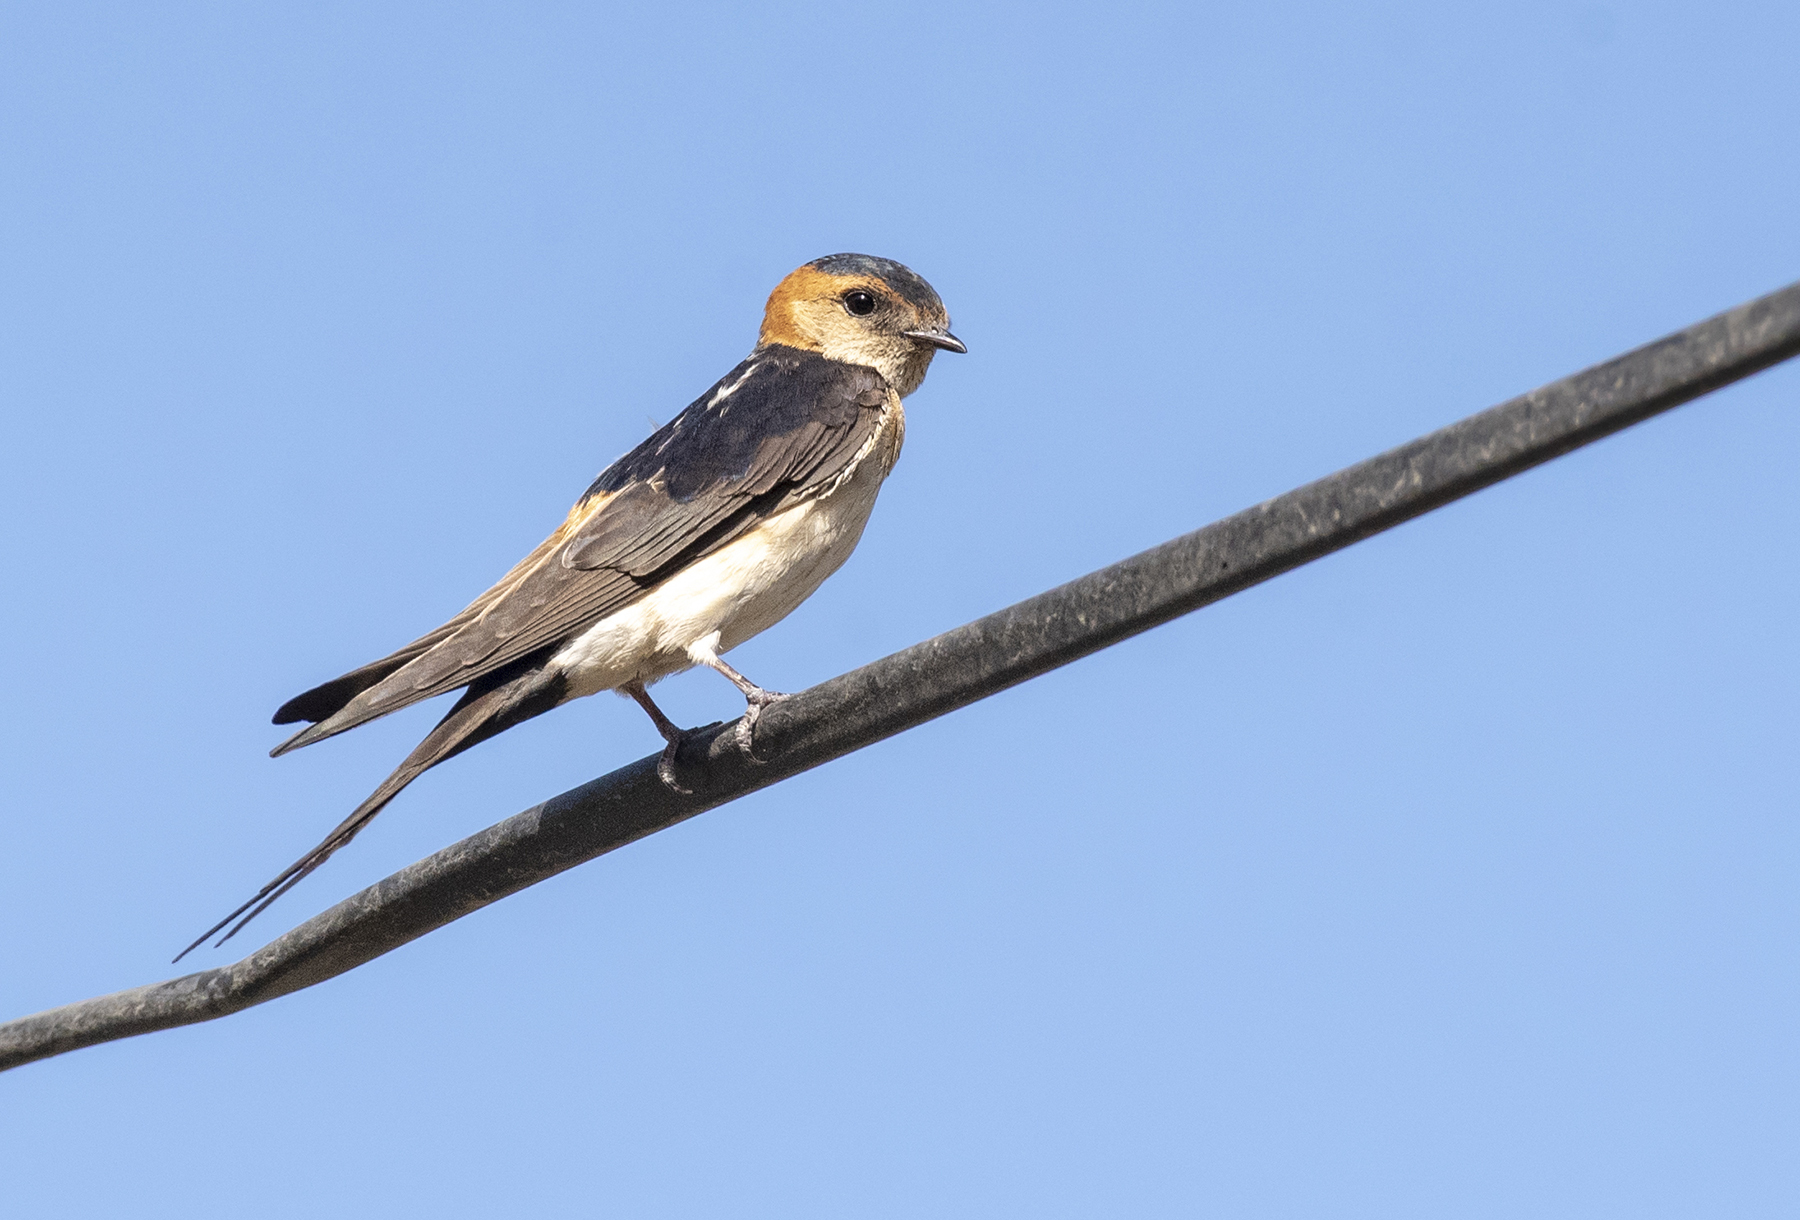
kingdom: Animalia
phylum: Chordata
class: Aves
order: Passeriformes
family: Hirundinidae
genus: Cecropis
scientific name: Cecropis daurica
